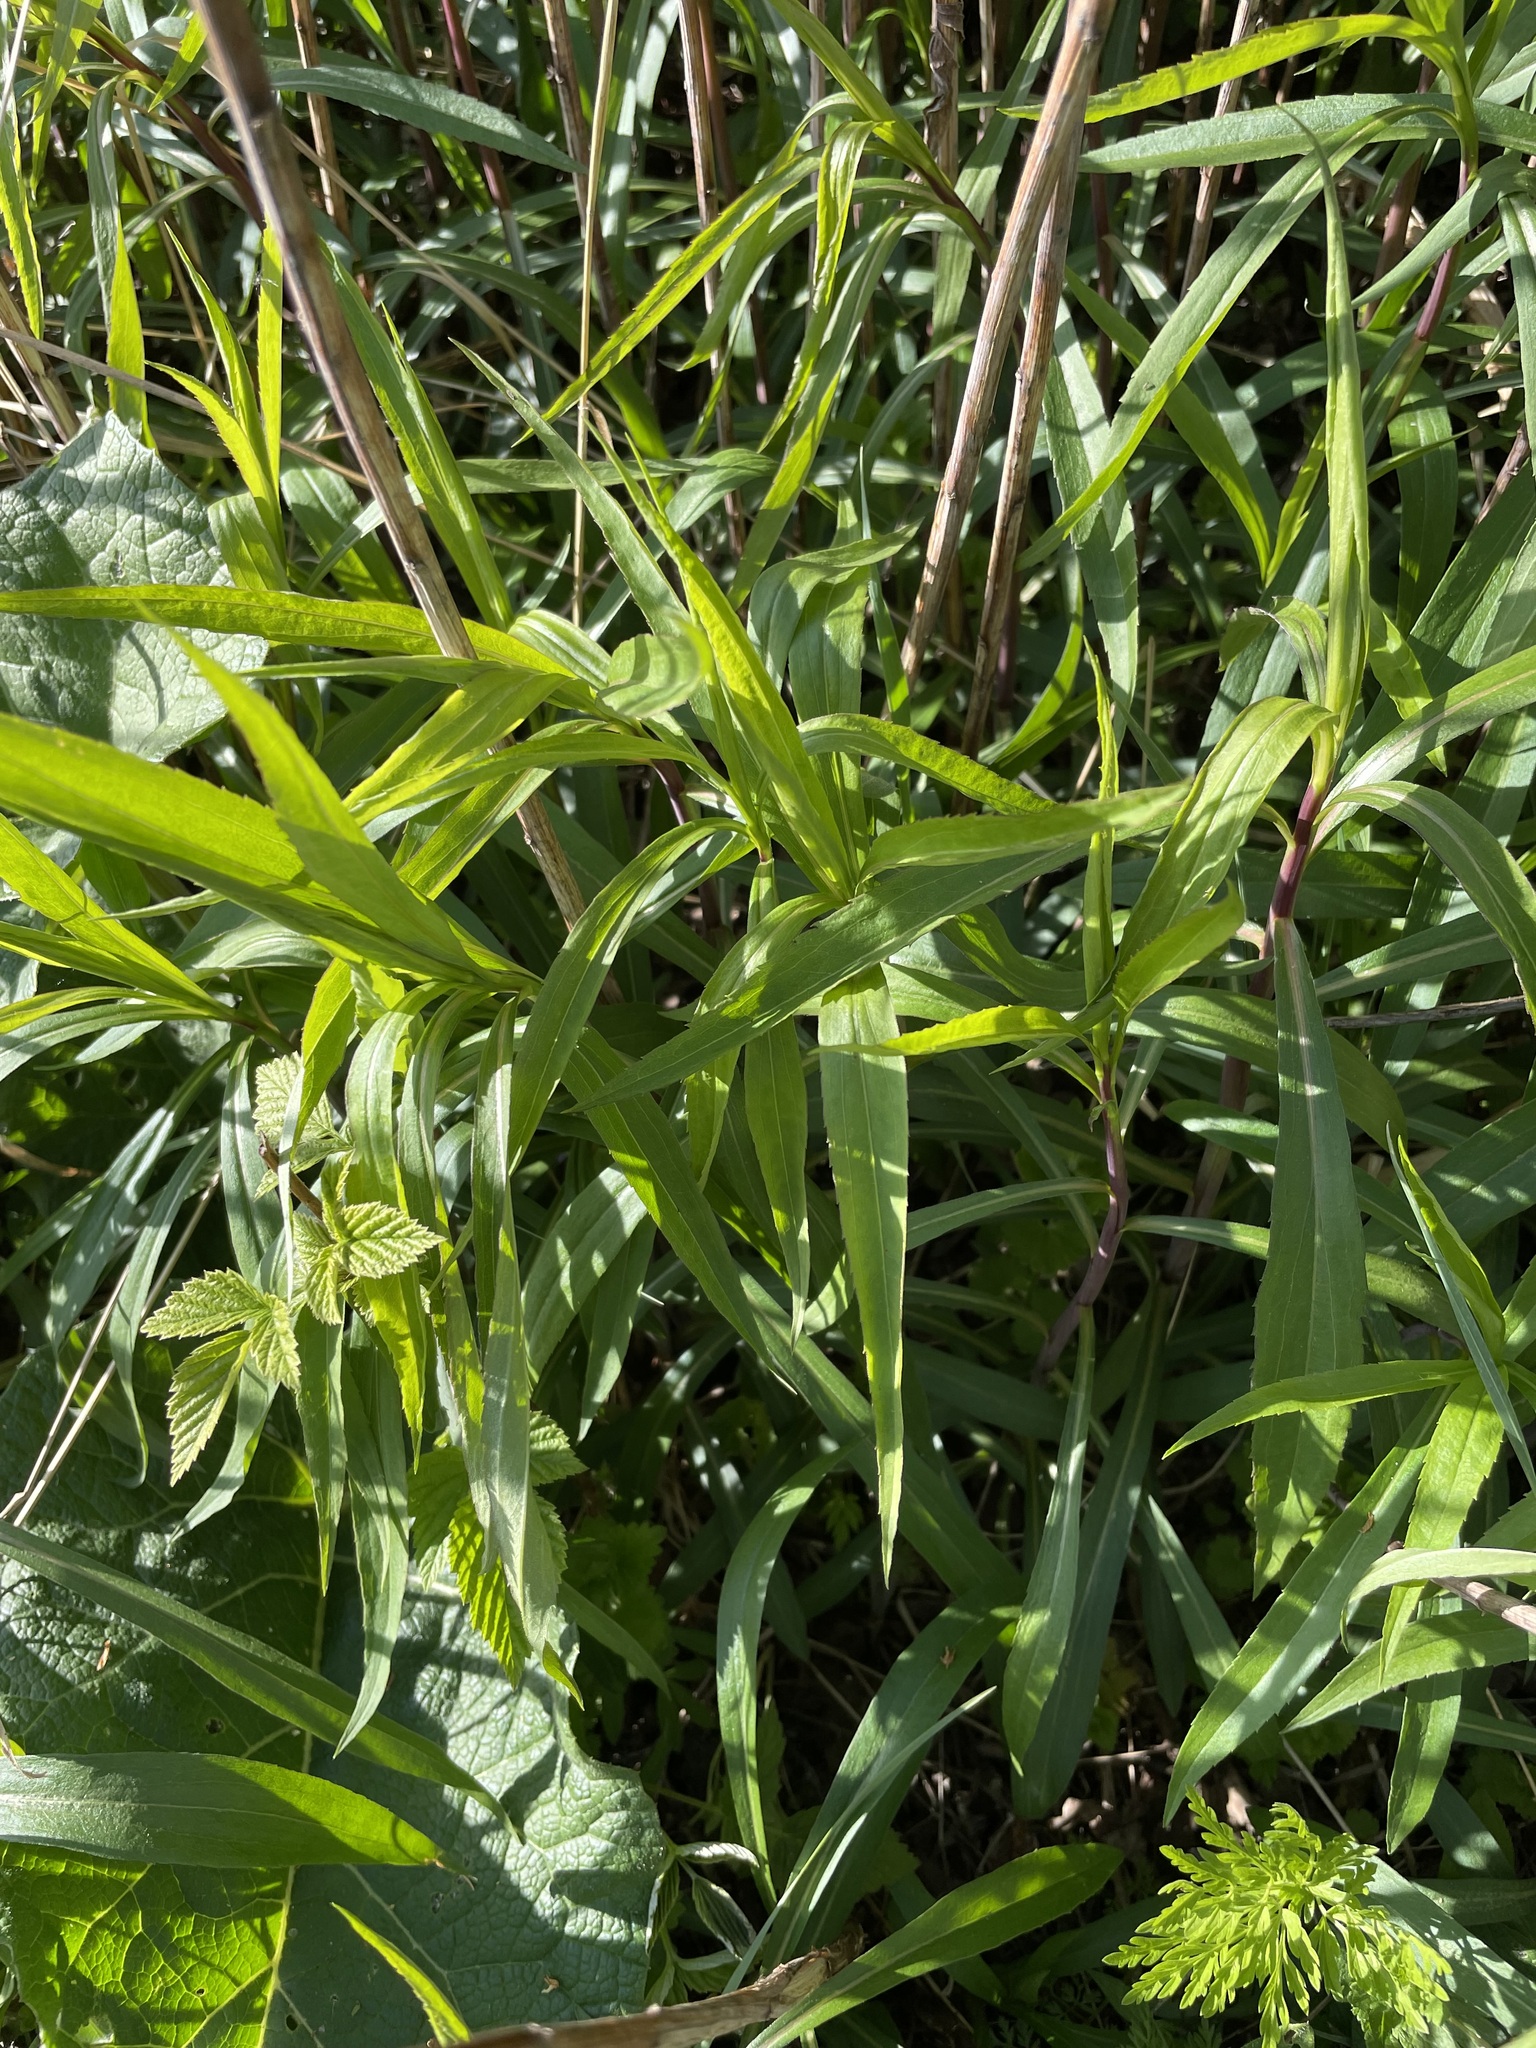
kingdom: Plantae
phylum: Tracheophyta
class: Magnoliopsida
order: Asterales
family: Asteraceae
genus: Solidago
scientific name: Solidago gigantea
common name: Giant goldenrod
